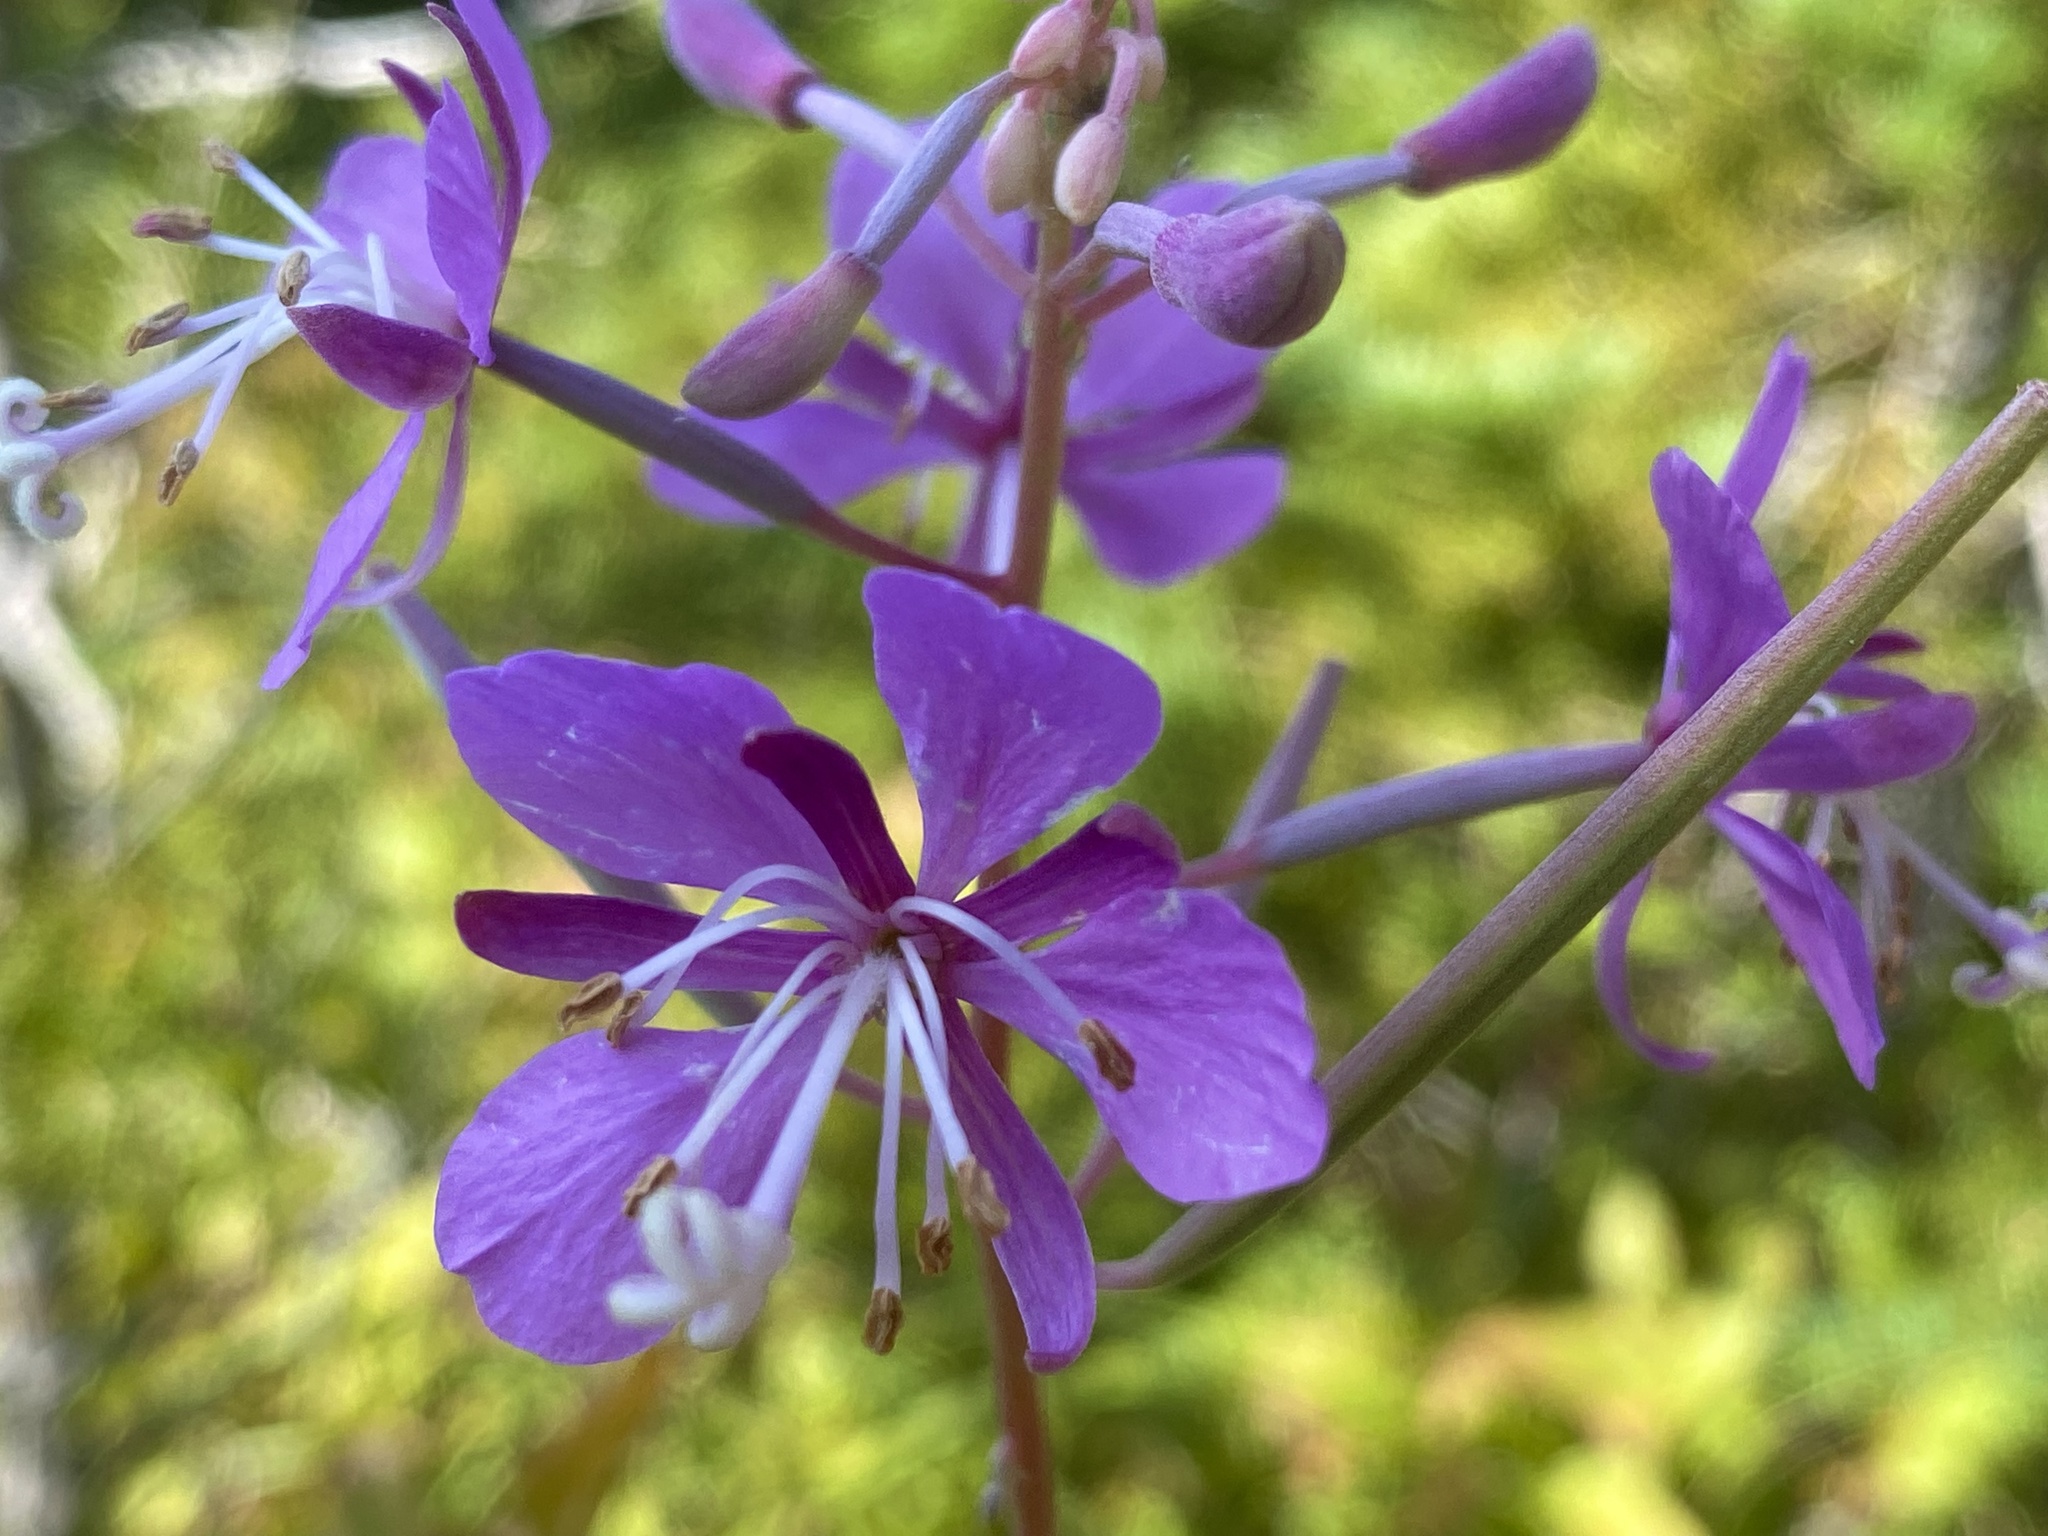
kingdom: Plantae
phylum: Tracheophyta
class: Magnoliopsida
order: Myrtales
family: Onagraceae
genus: Chamaenerion
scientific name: Chamaenerion angustifolium
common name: Fireweed
